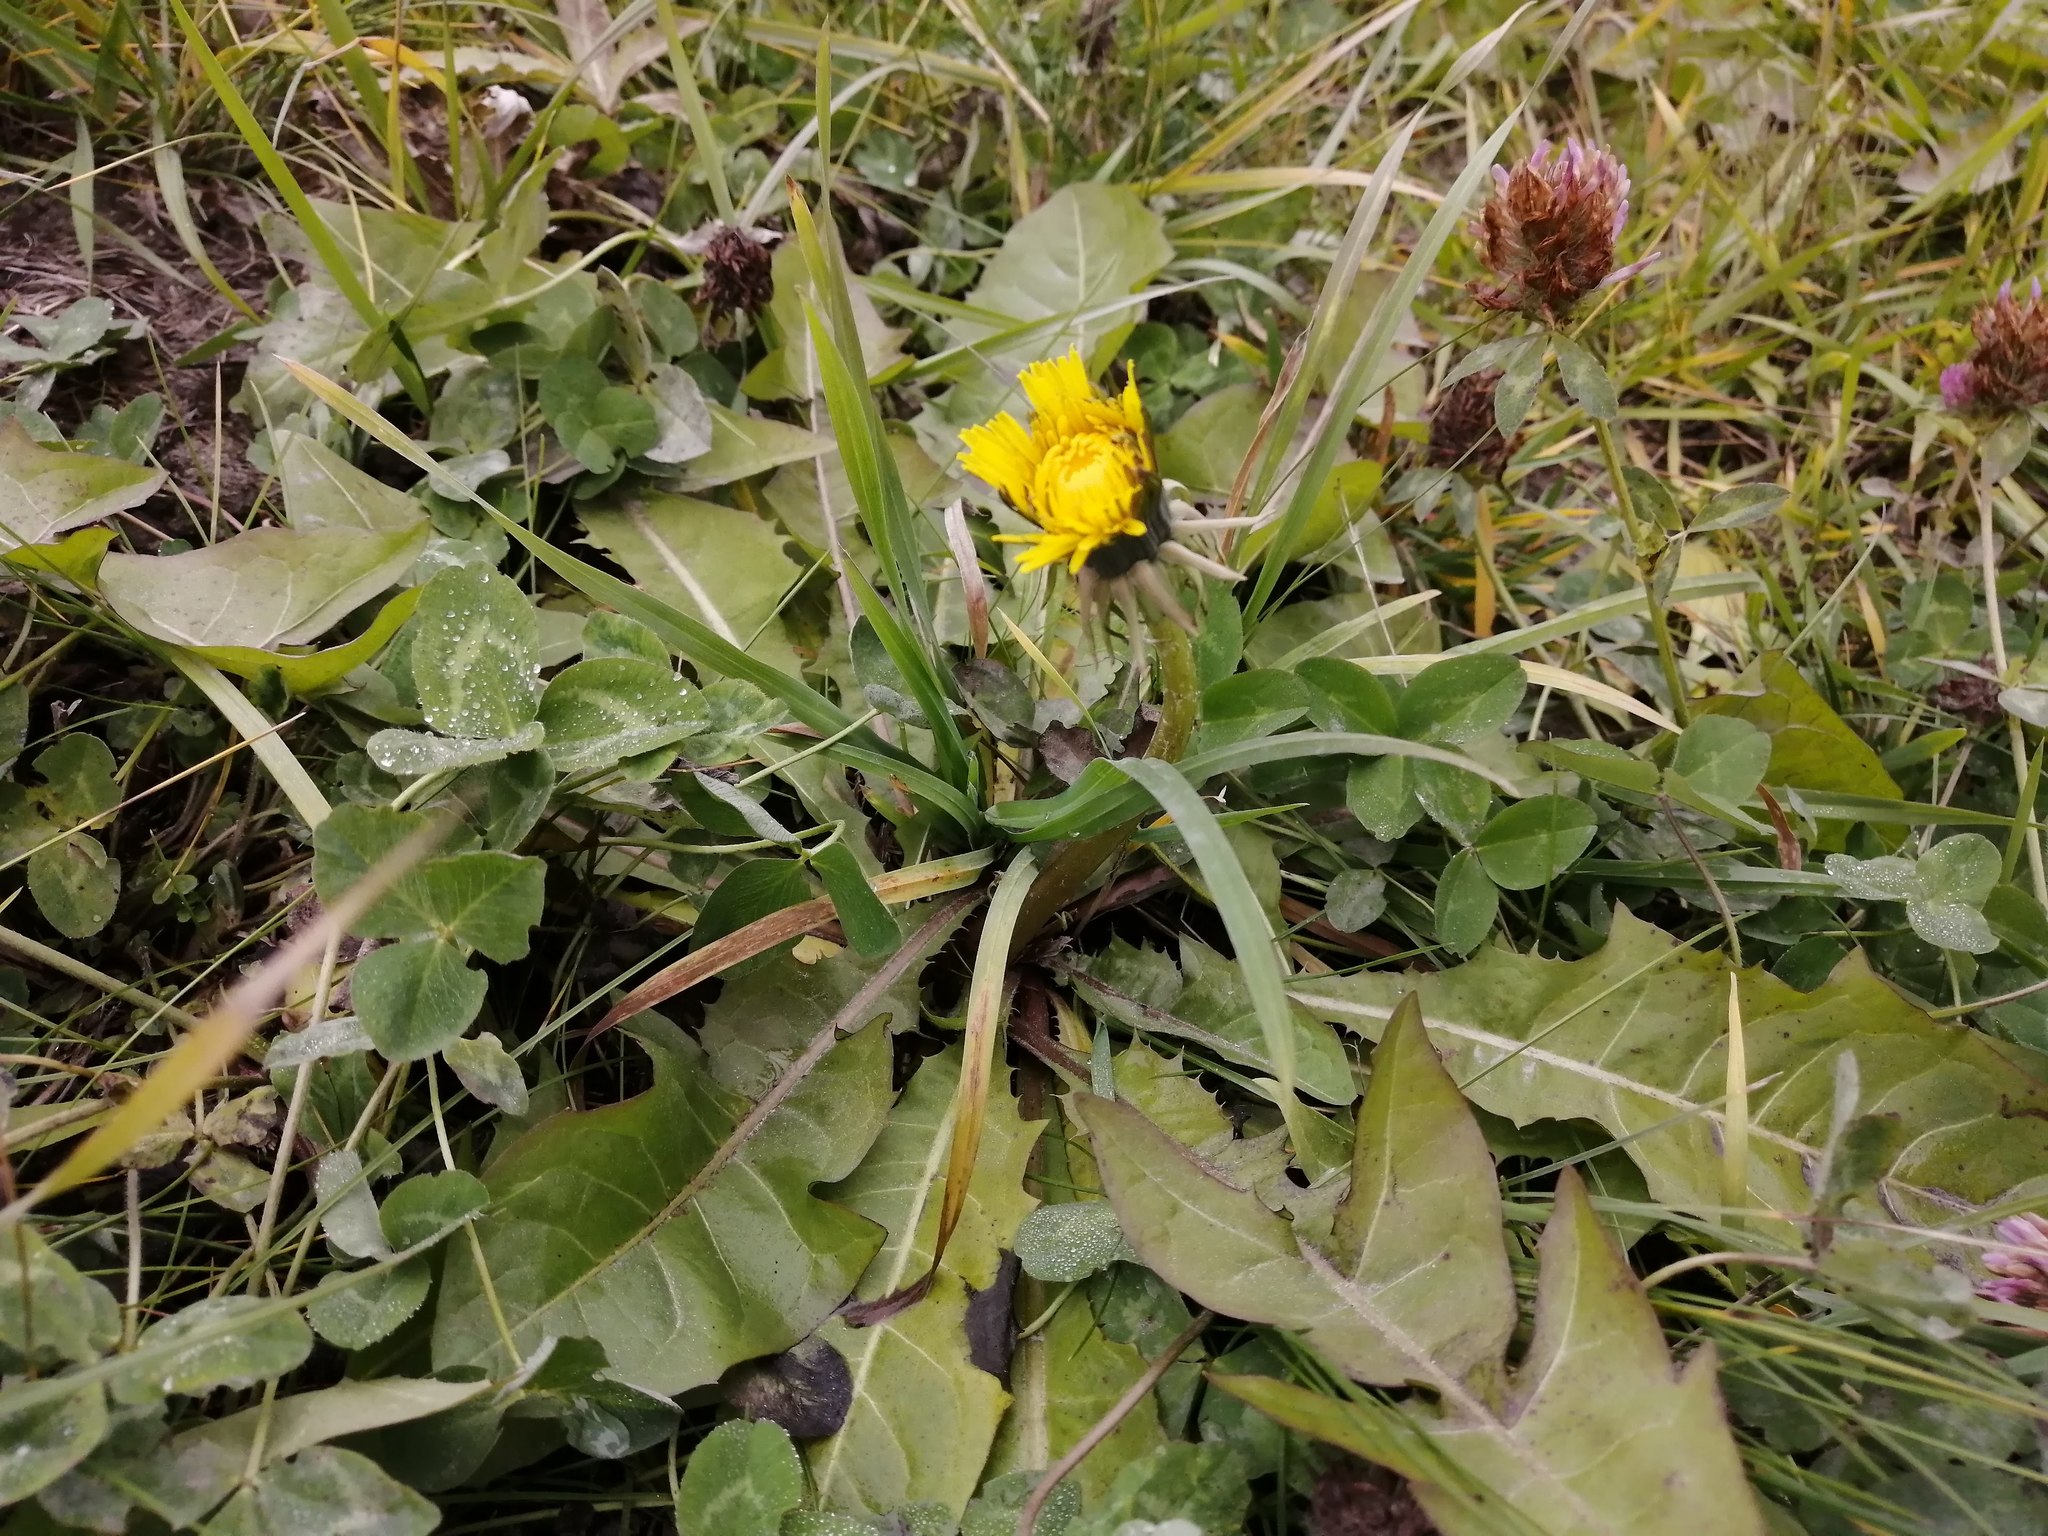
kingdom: Plantae
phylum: Tracheophyta
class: Magnoliopsida
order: Asterales
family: Asteraceae
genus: Taraxacum
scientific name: Taraxacum officinale
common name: Common dandelion
